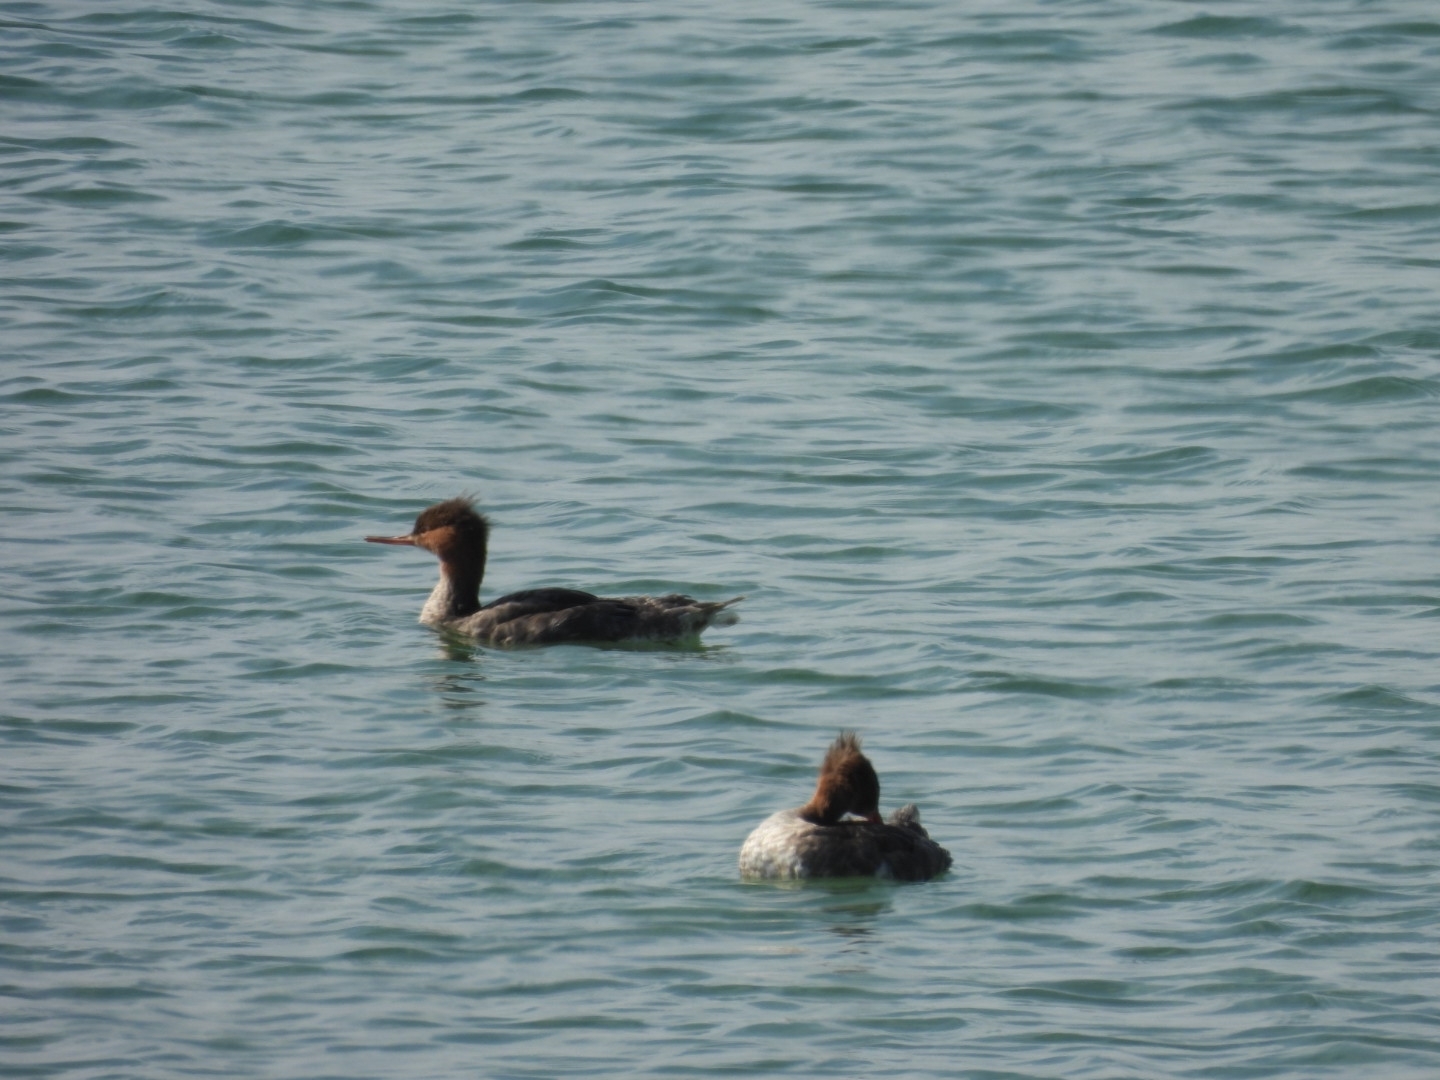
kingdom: Animalia
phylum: Chordata
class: Aves
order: Anseriformes
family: Anatidae
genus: Mergus
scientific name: Mergus serrator
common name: Red-breasted merganser
